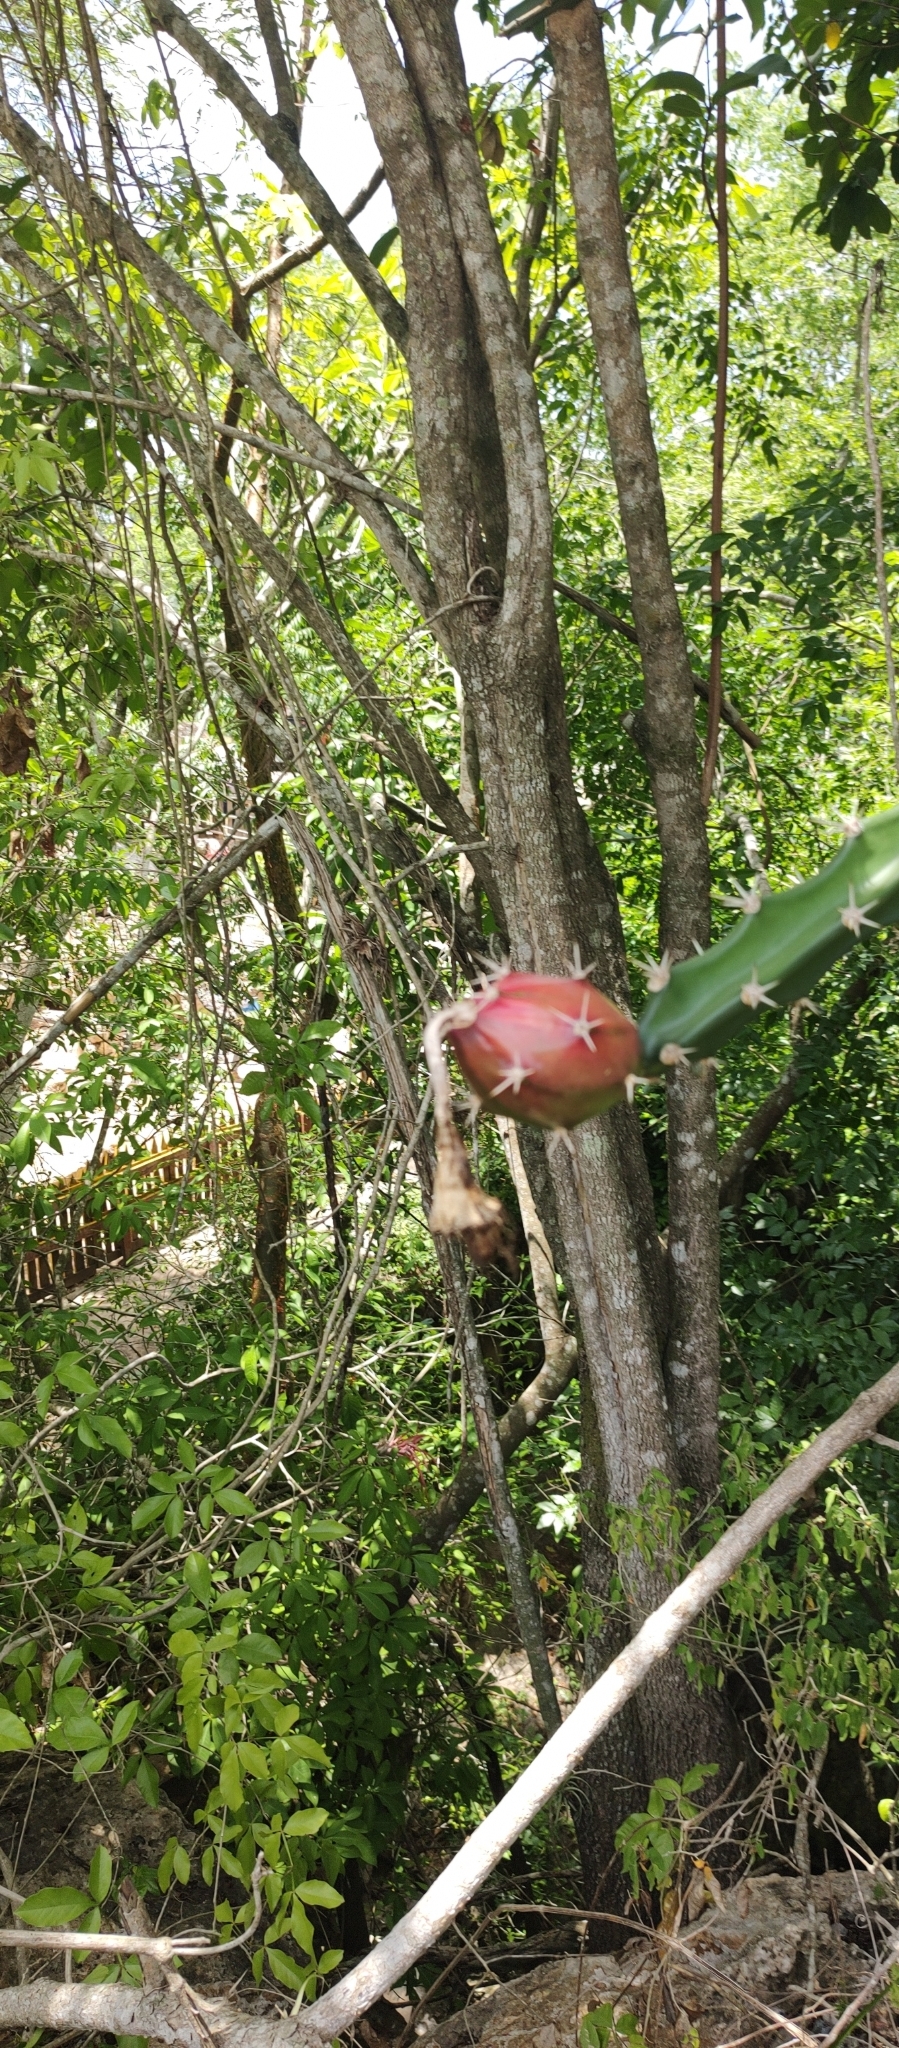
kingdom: Plantae
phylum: Tracheophyta
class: Magnoliopsida
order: Caryophyllales
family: Cactaceae
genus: Acanthocereus
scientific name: Acanthocereus tetragonus
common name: Triangle cactus
